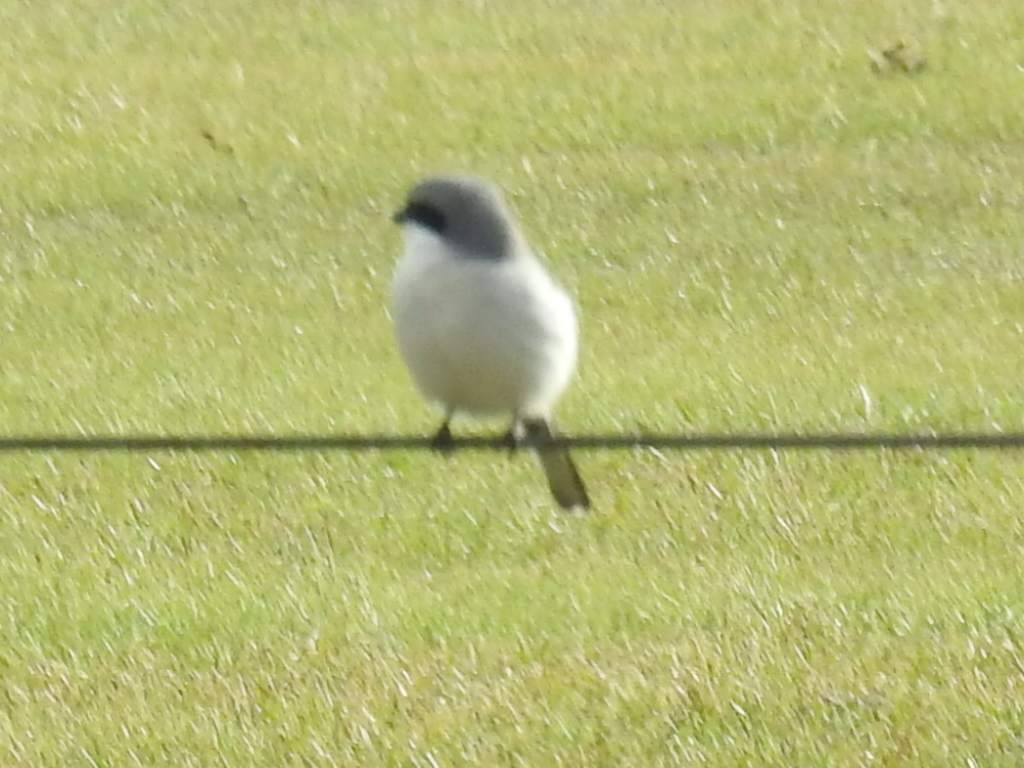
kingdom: Animalia
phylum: Chordata
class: Aves
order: Passeriformes
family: Laniidae
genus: Lanius
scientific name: Lanius ludovicianus
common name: Loggerhead shrike
